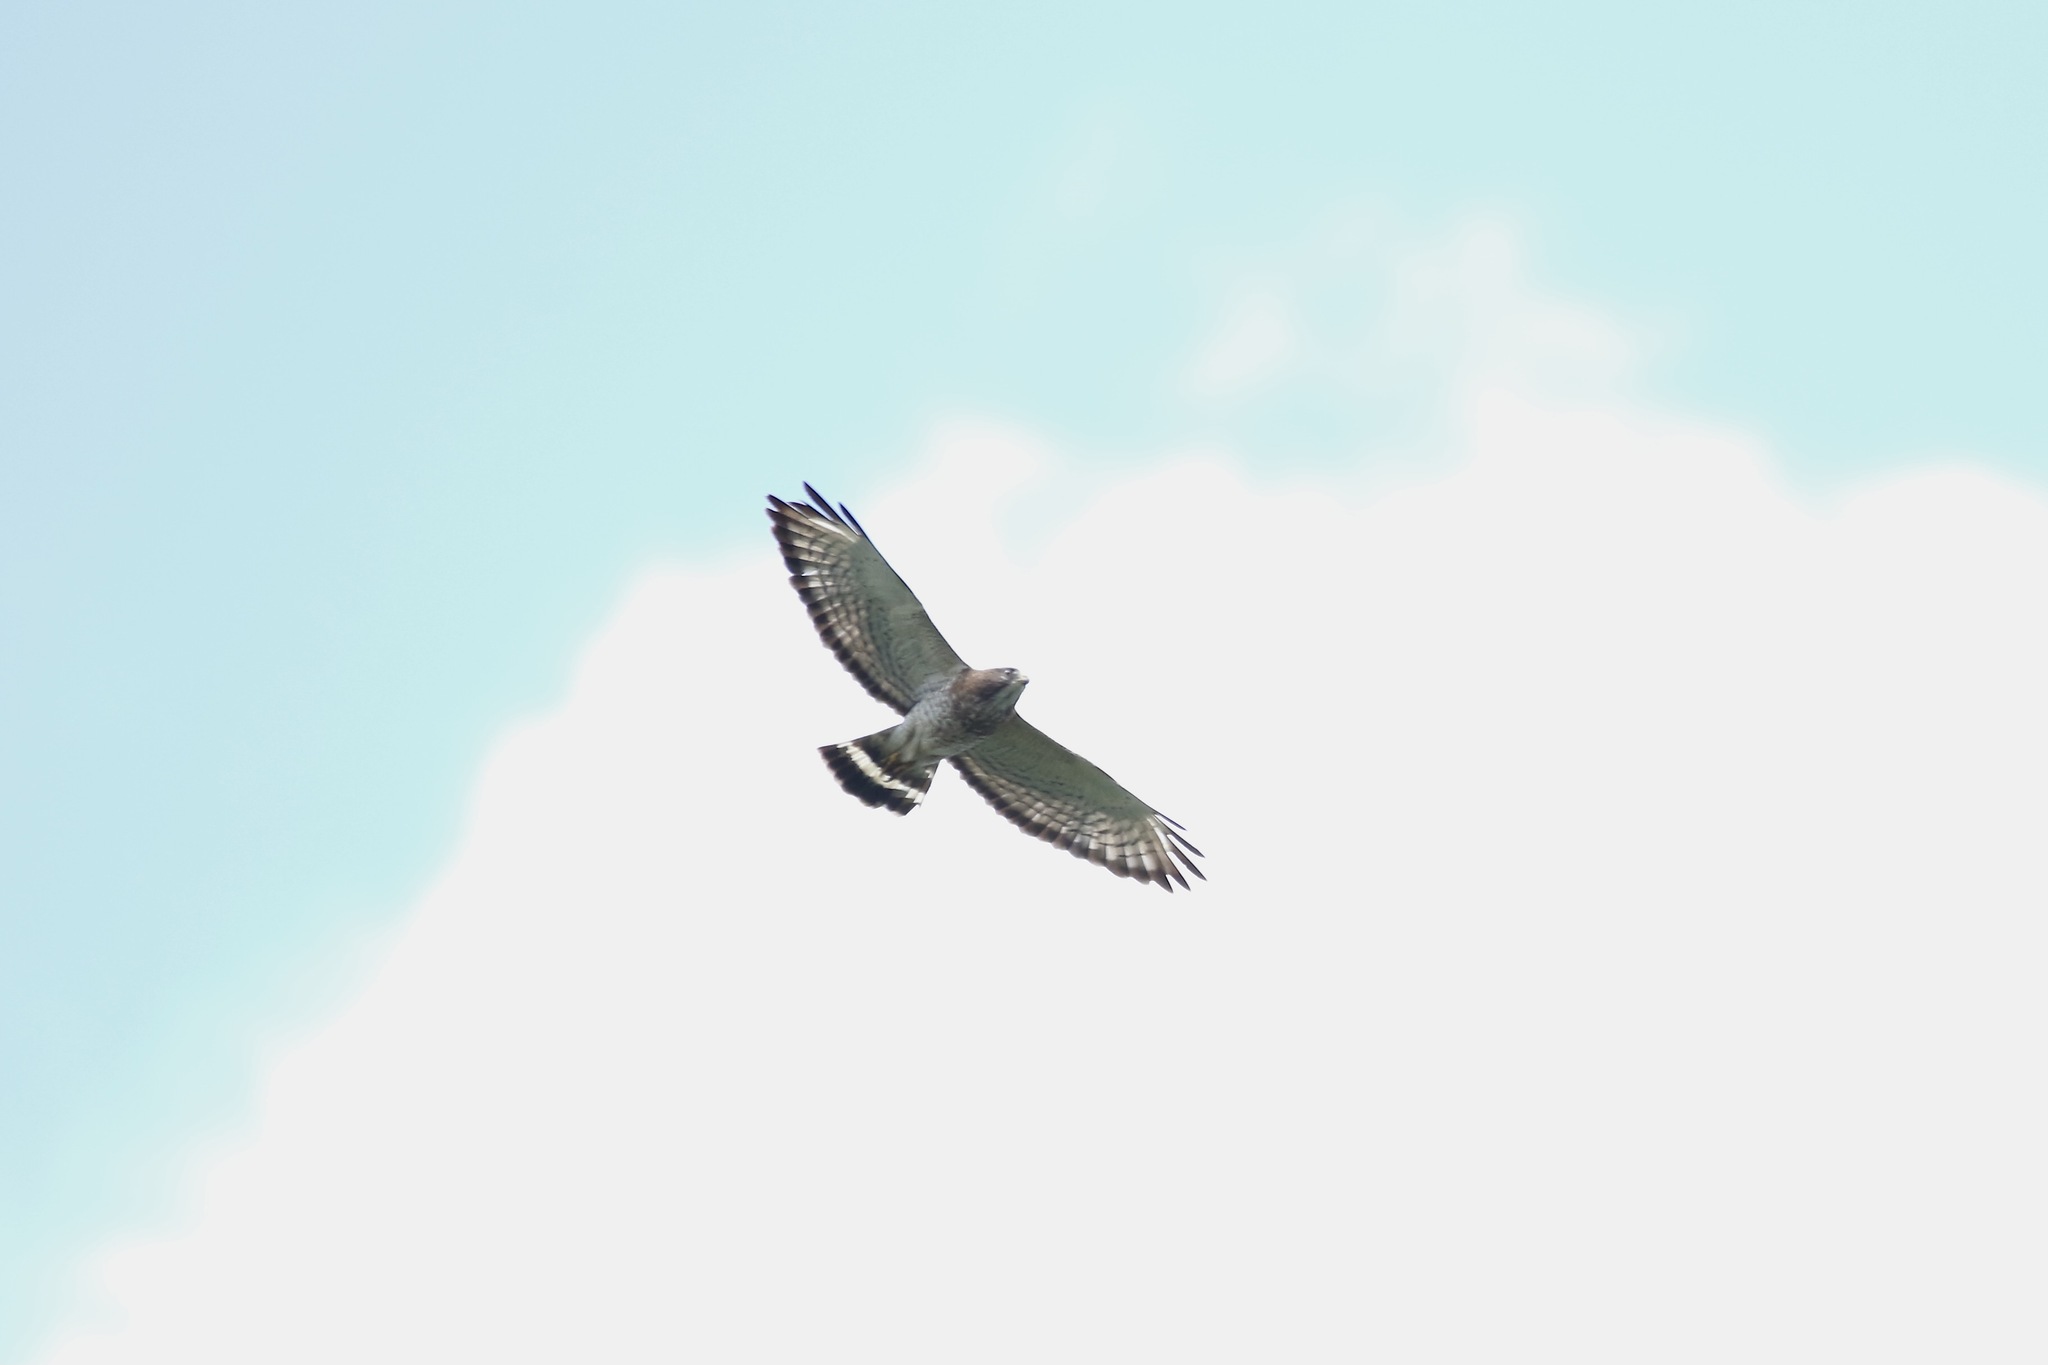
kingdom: Animalia
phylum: Chordata
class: Aves
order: Accipitriformes
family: Accipitridae
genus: Buteo
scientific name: Buteo platypterus
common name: Broad-winged hawk
